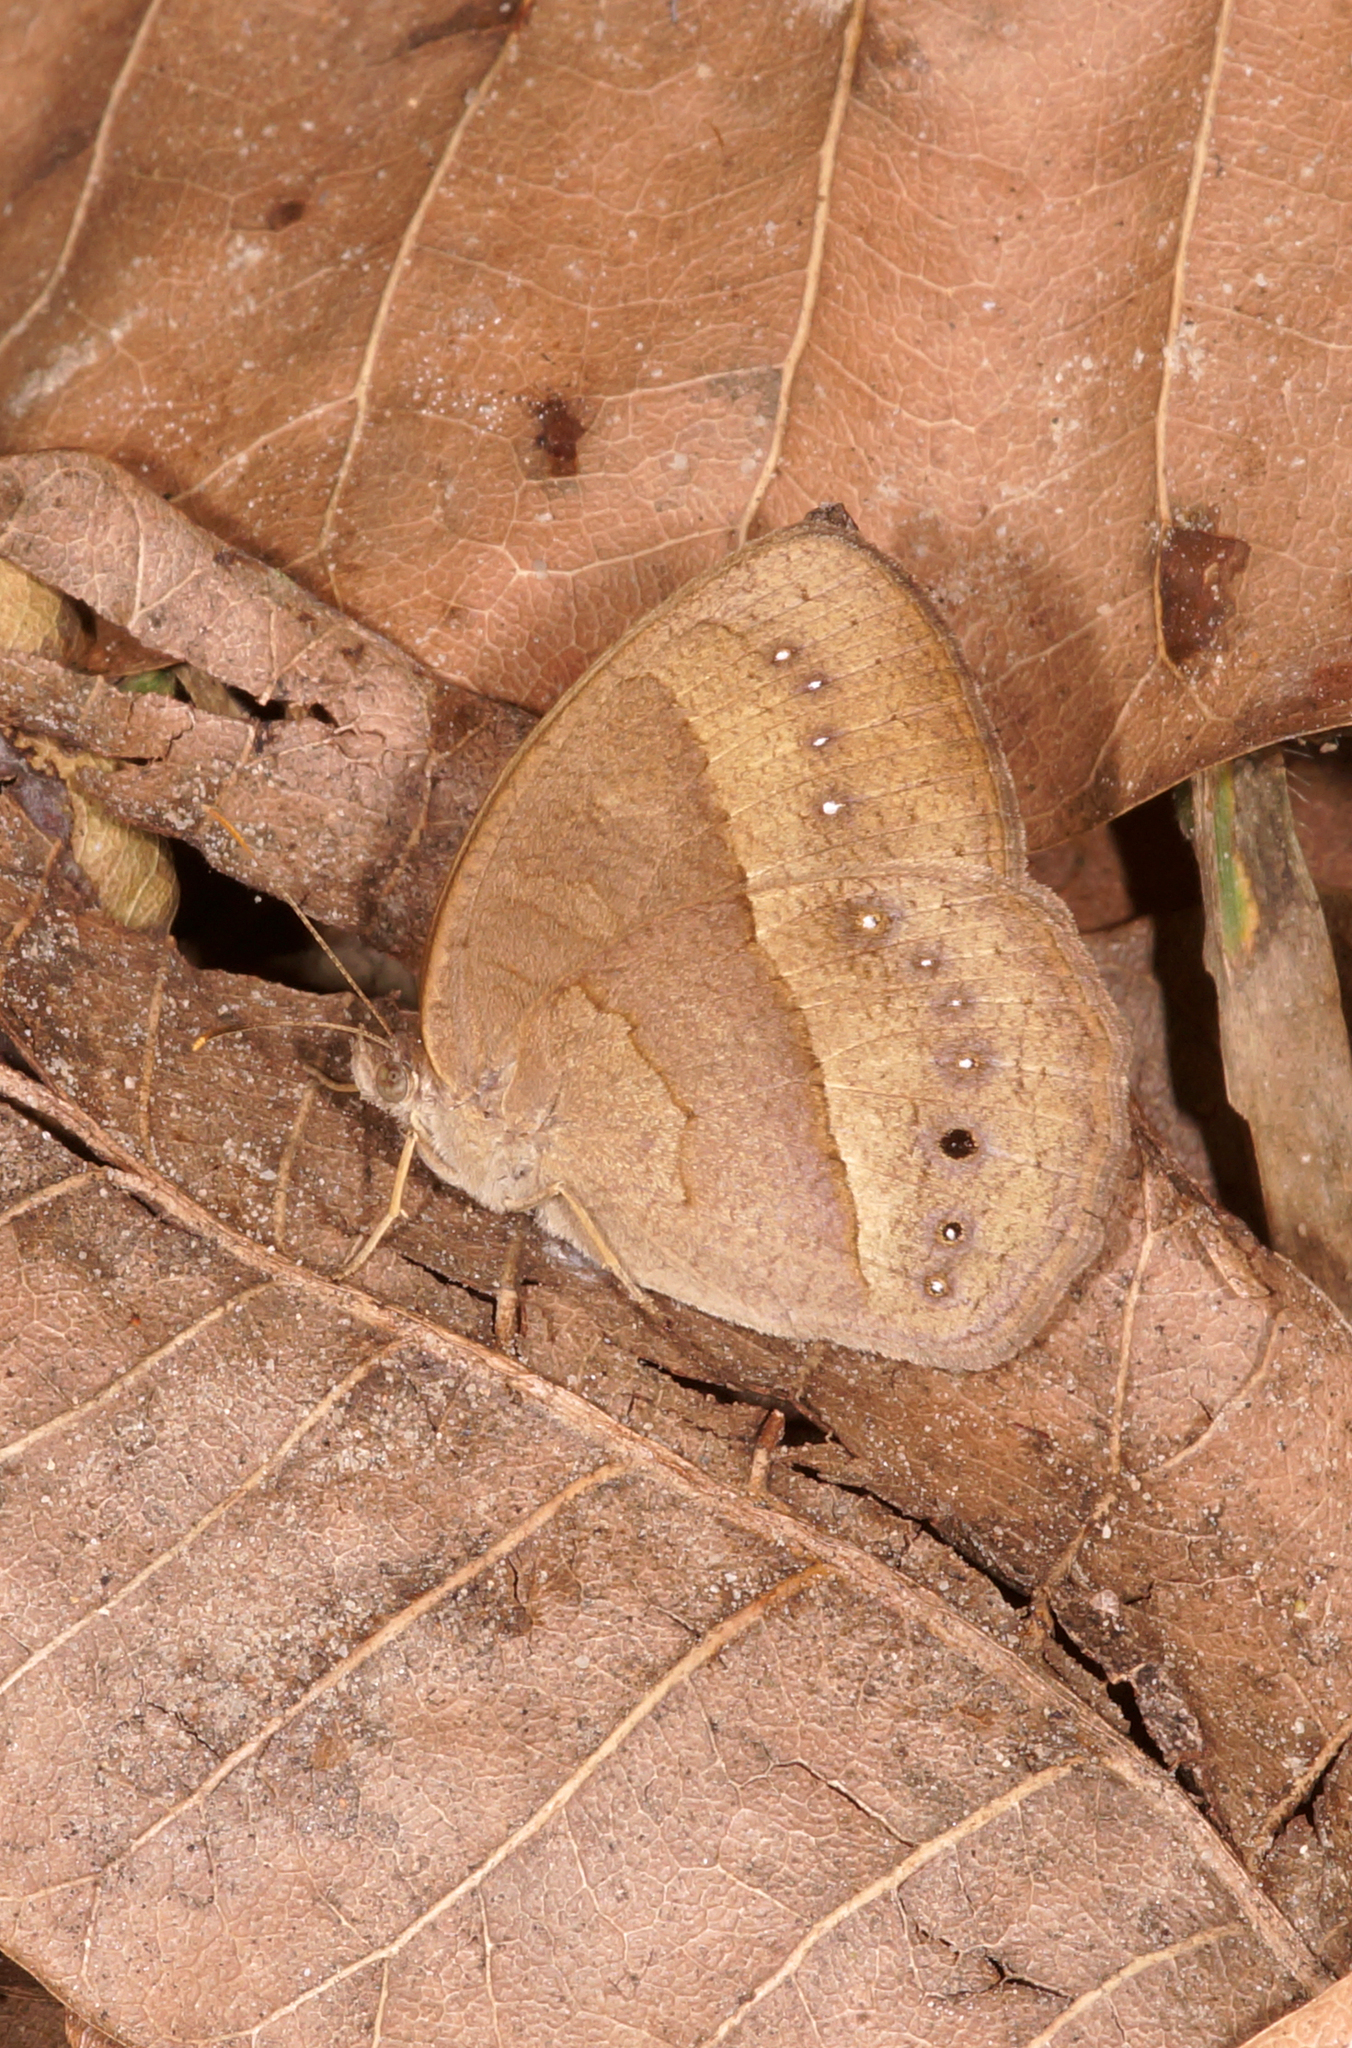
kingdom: Animalia
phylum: Arthropoda
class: Insecta
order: Lepidoptera
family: Nymphalidae
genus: Mycalesis
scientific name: Mycalesis perseoides
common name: Burmese bushbrown
